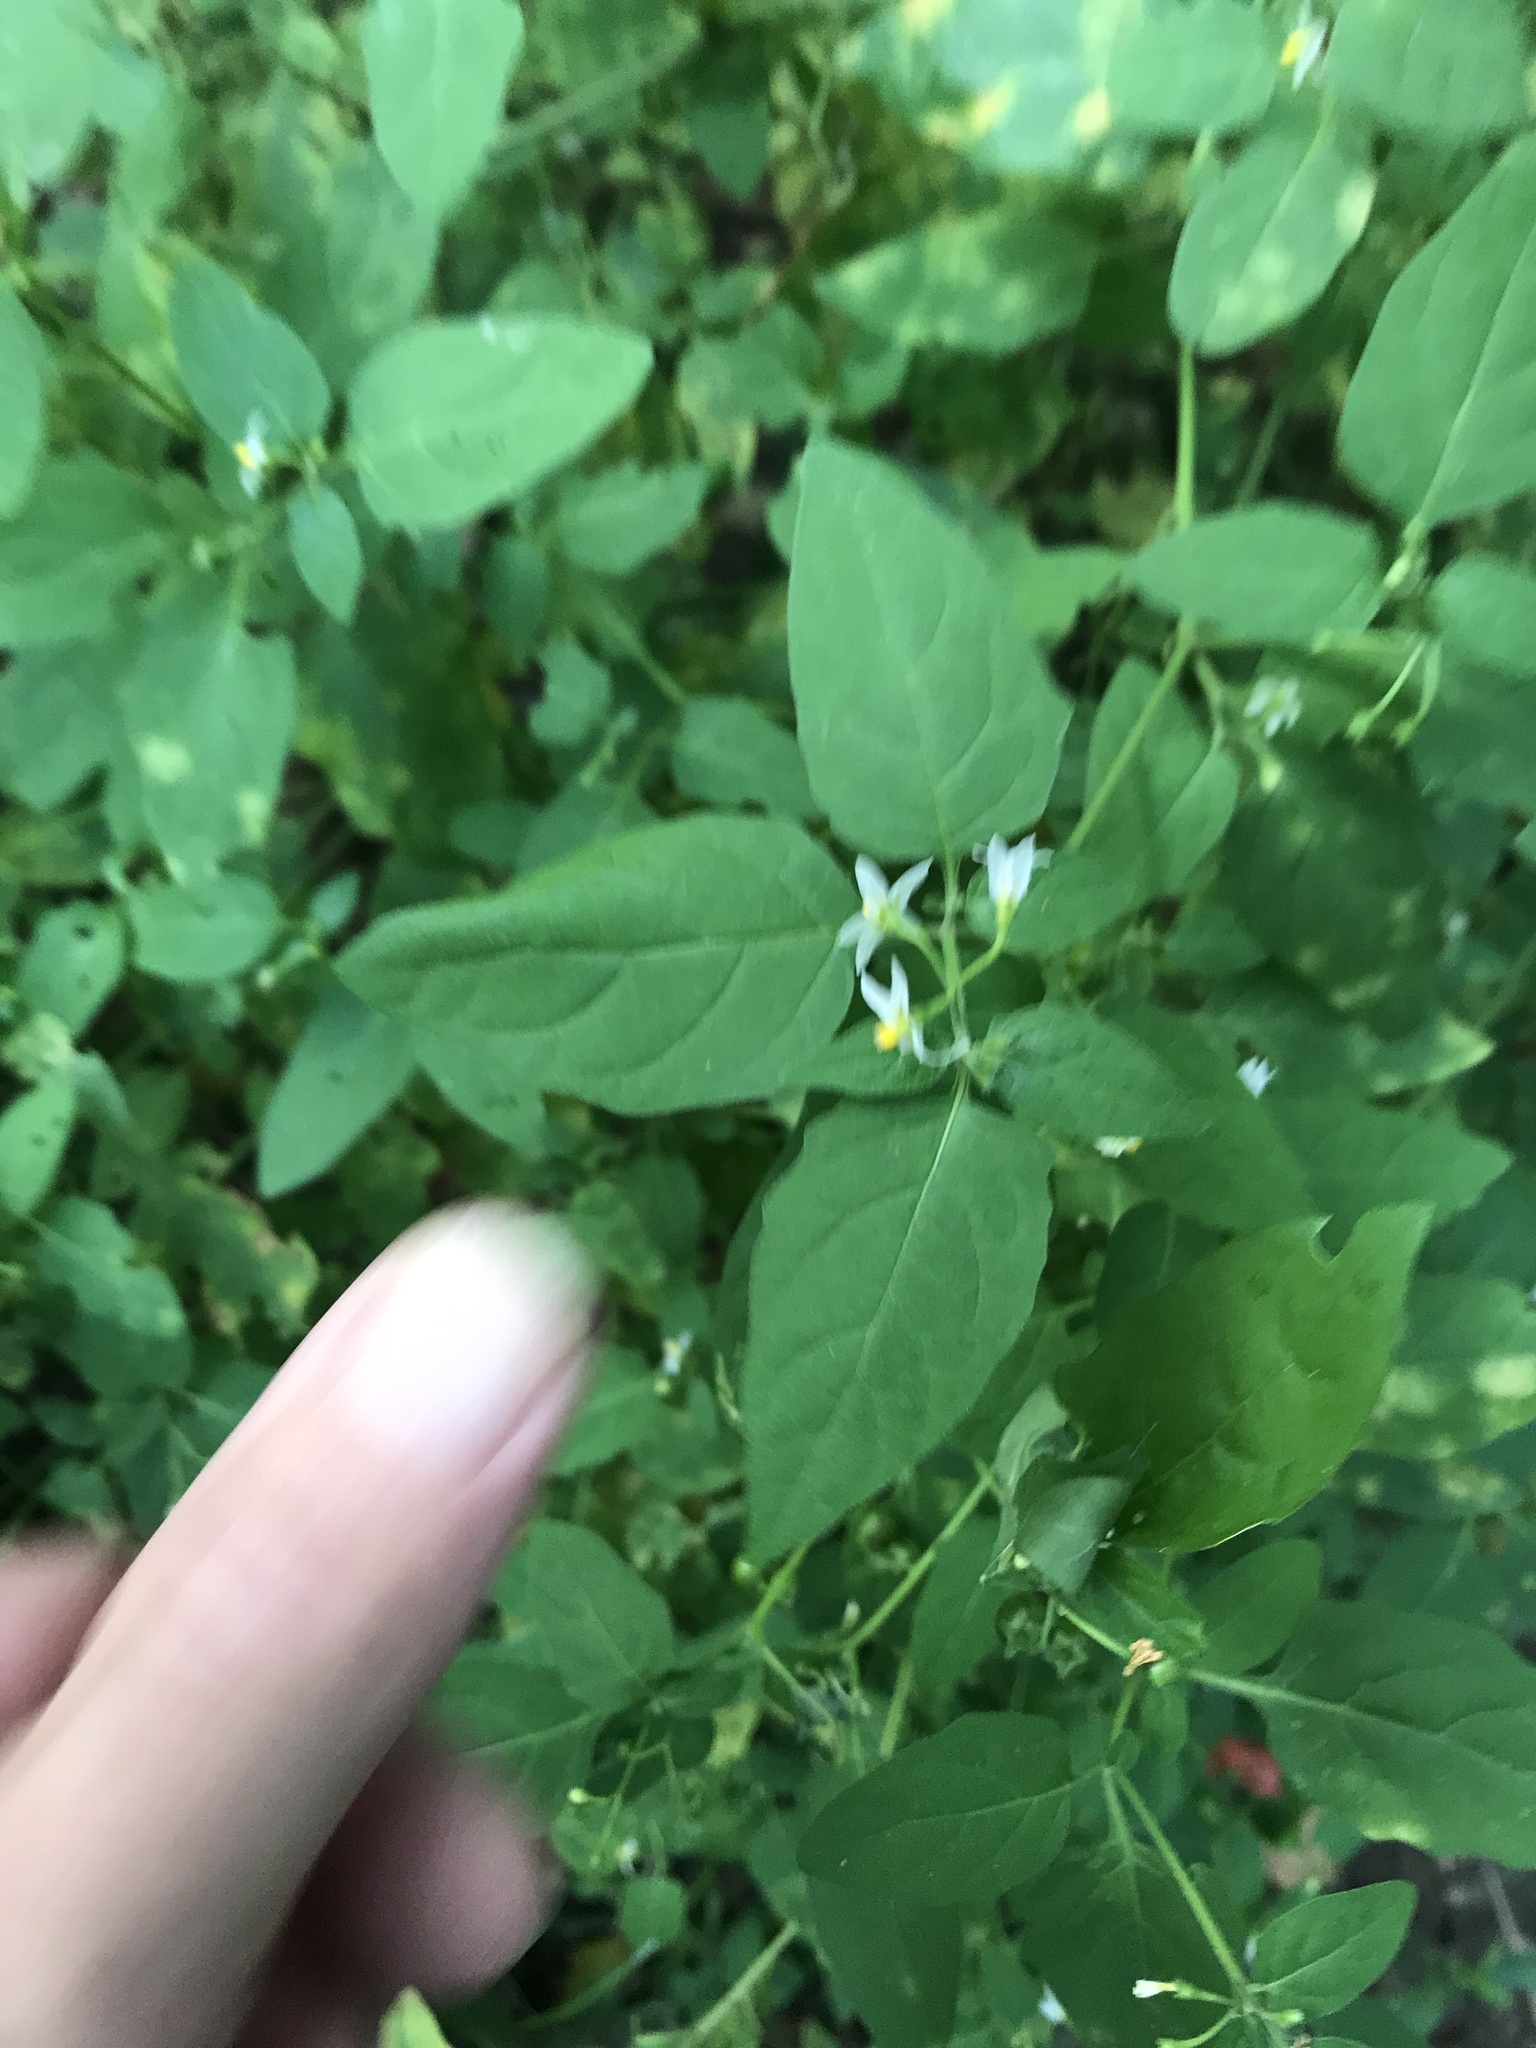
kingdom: Plantae
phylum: Tracheophyta
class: Magnoliopsida
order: Solanales
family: Solanaceae
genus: Solanum
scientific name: Solanum emulans
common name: Eastern black nightshade
